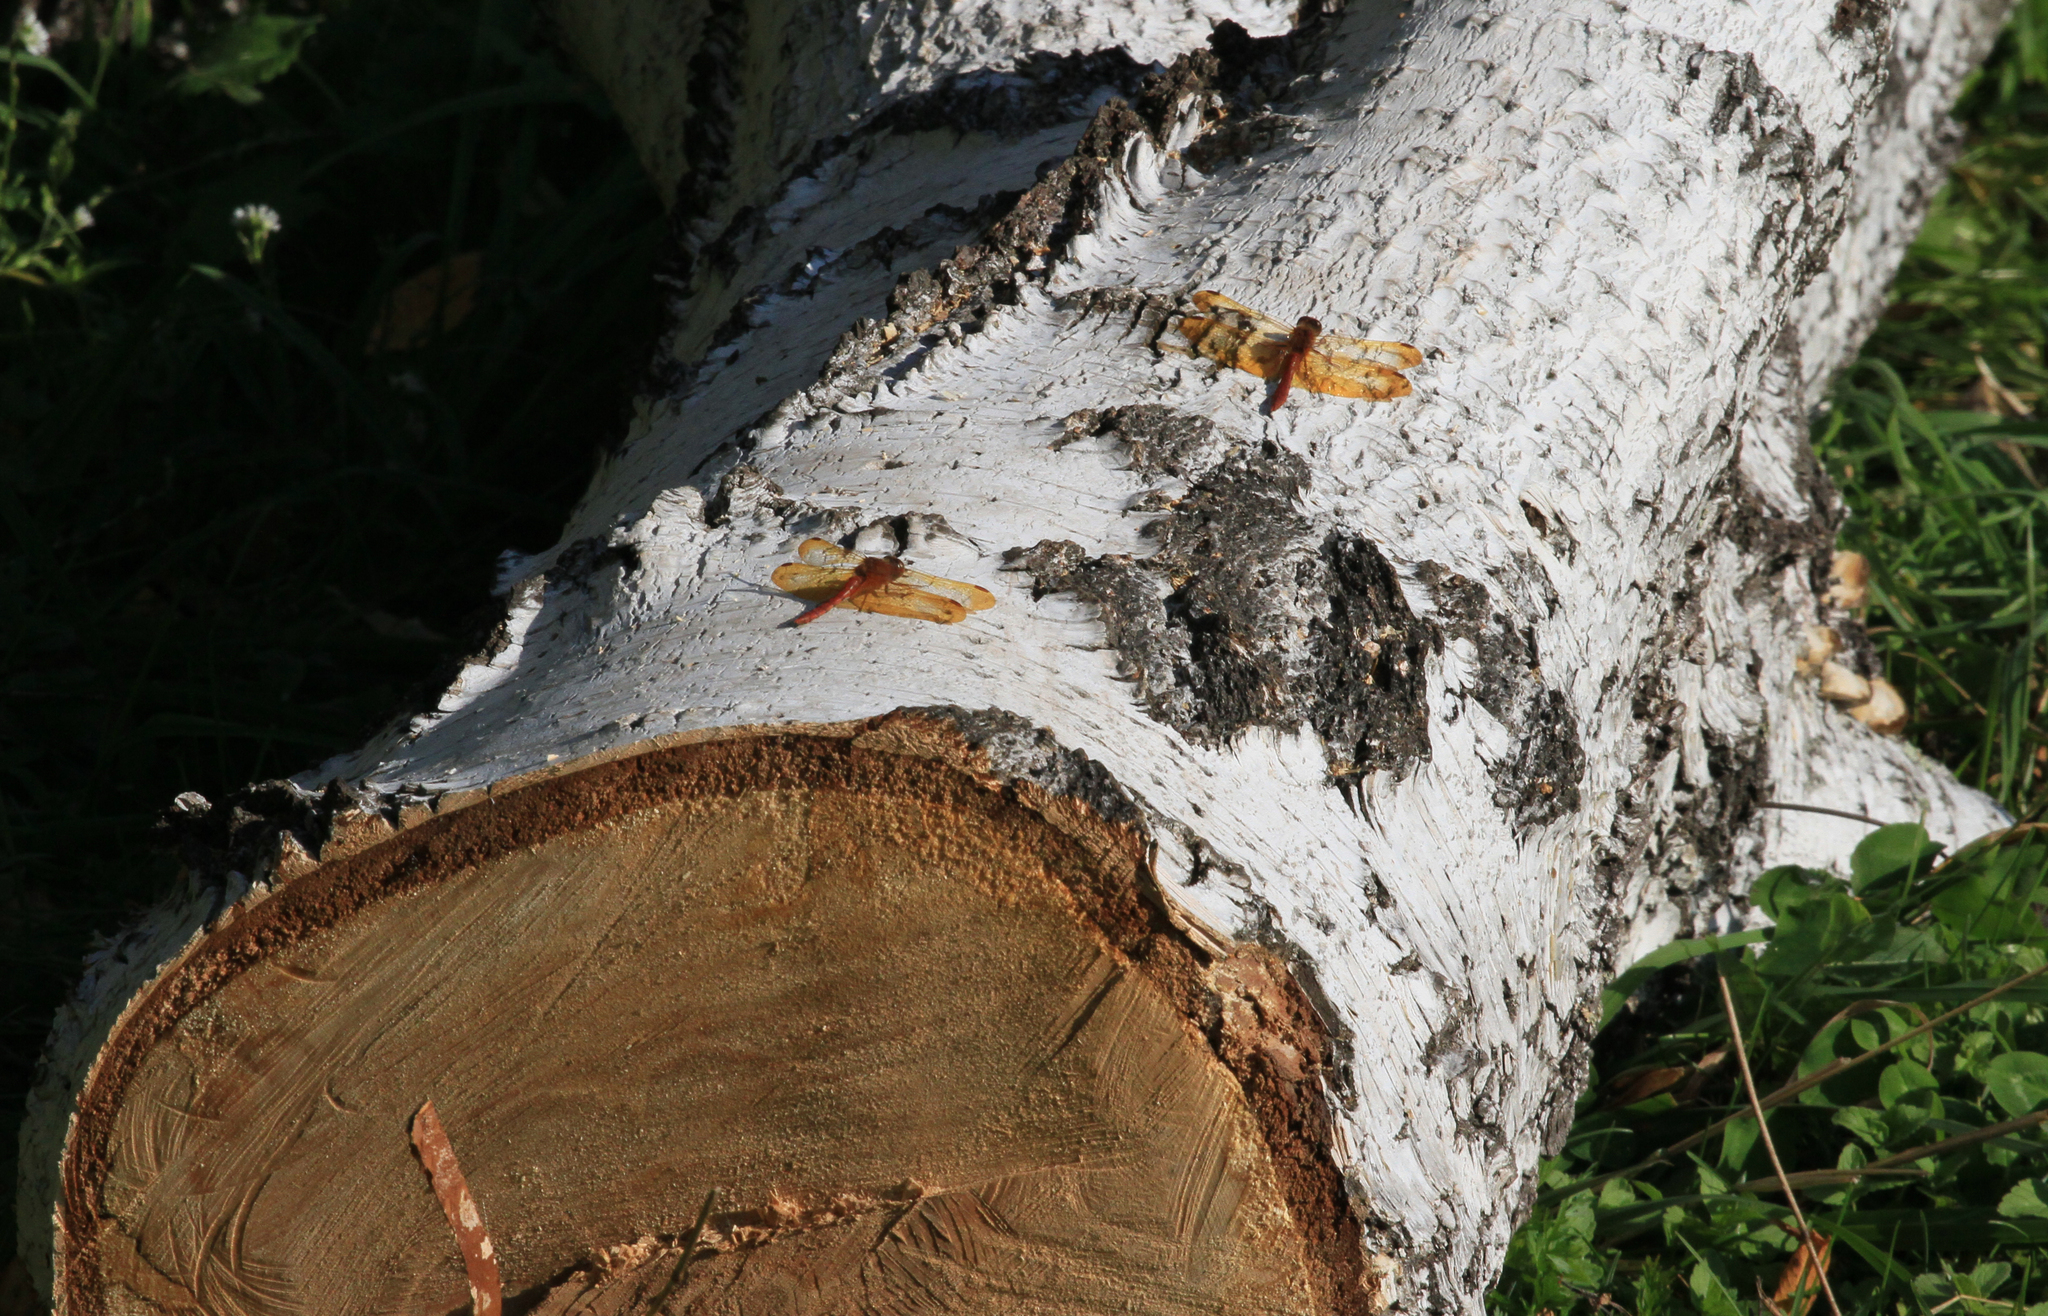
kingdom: Animalia
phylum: Arthropoda
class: Insecta
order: Odonata
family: Libellulidae
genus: Sympetrum
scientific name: Sympetrum croceolum
